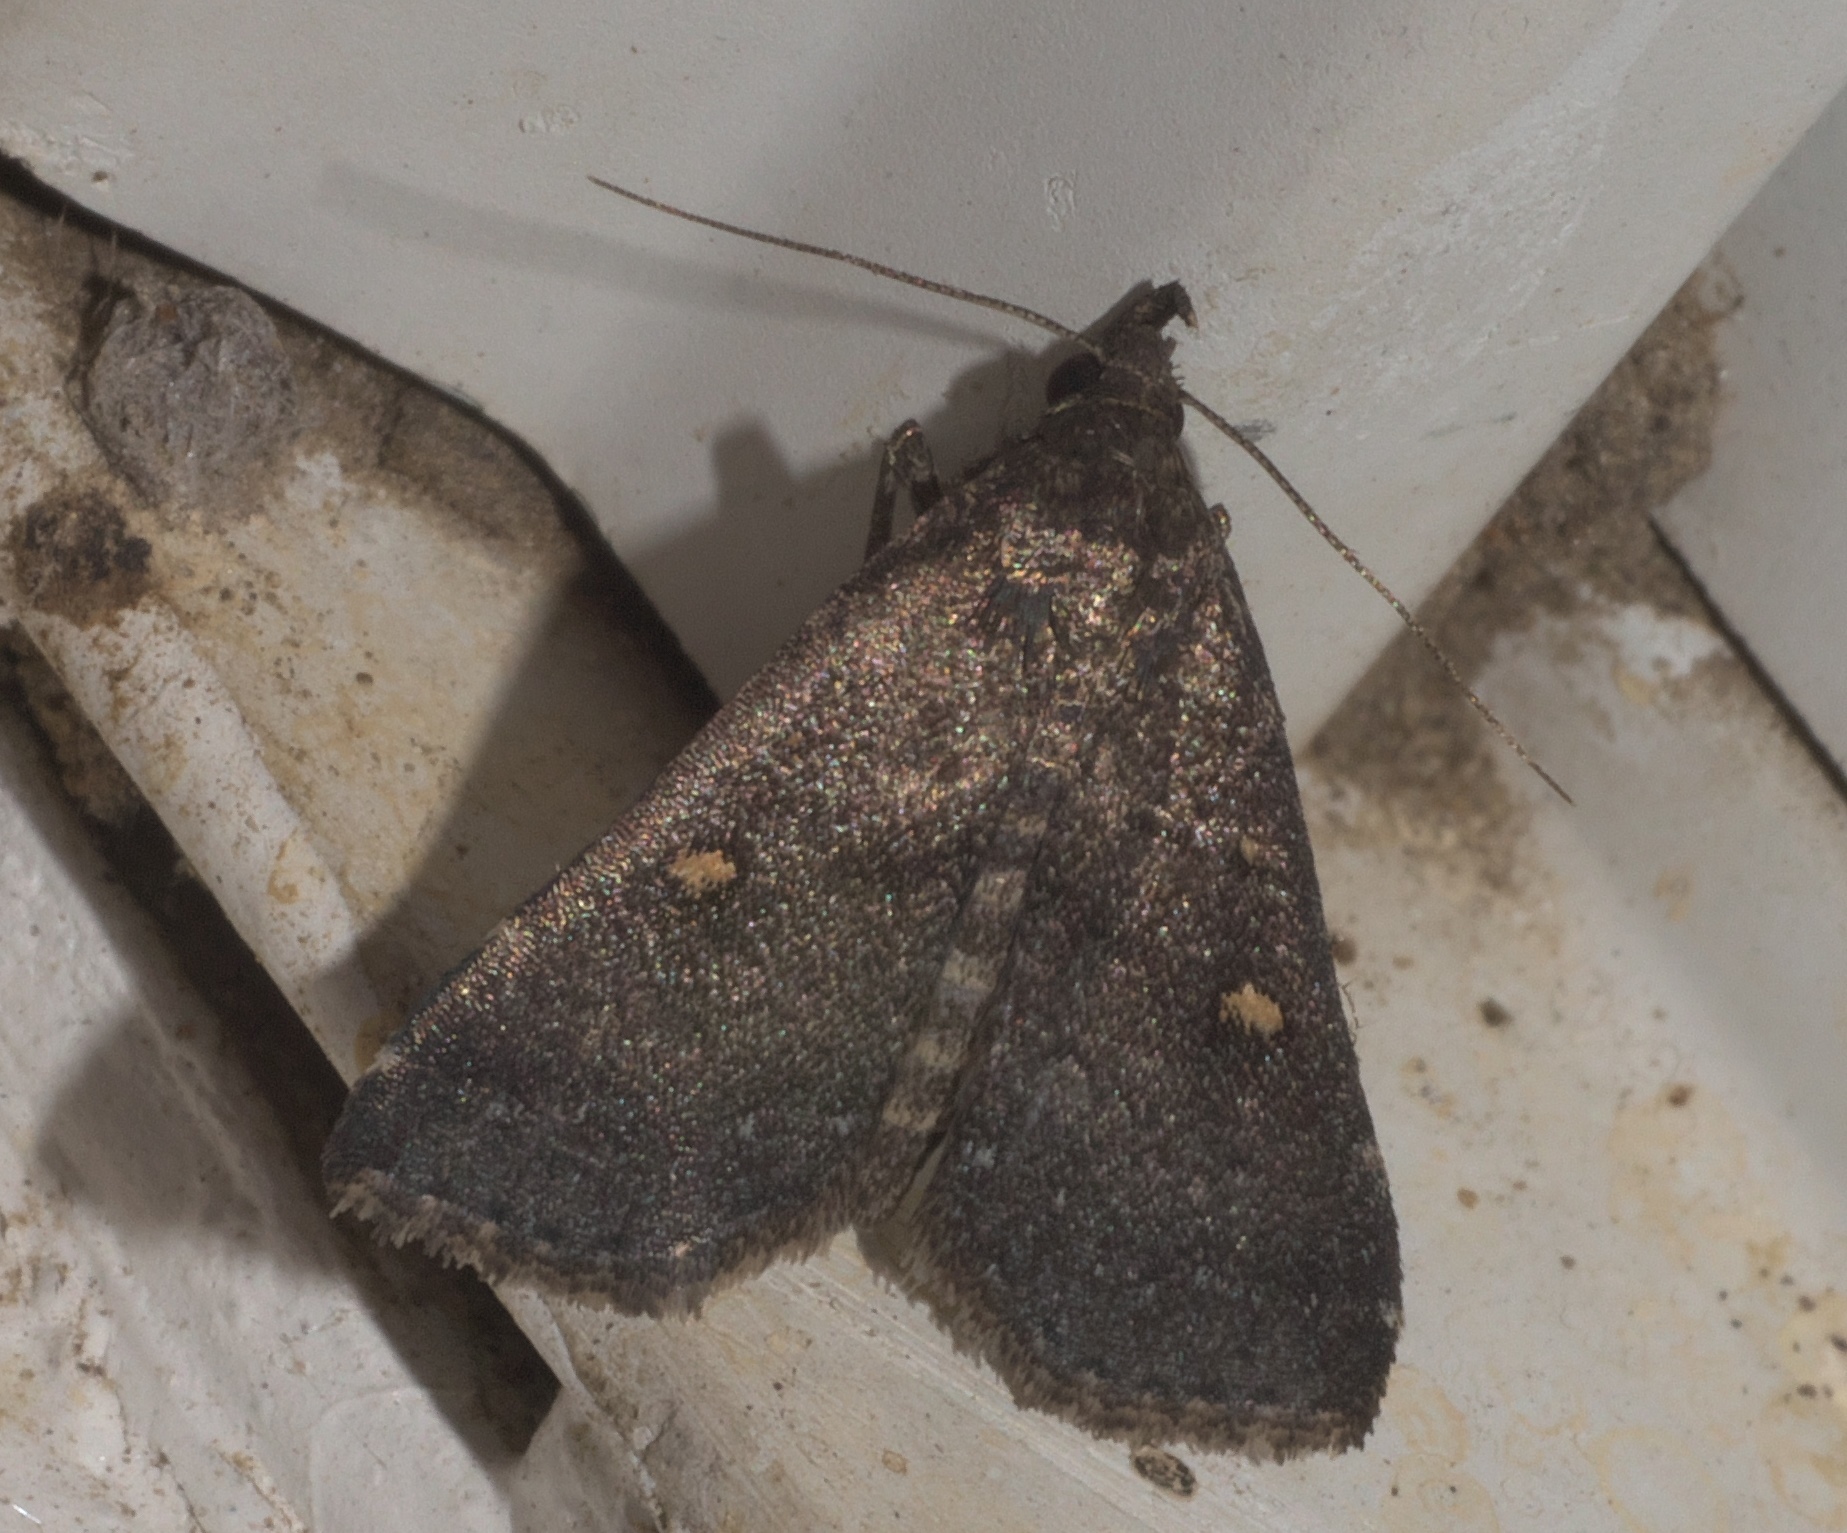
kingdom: Animalia
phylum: Arthropoda
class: Insecta
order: Lepidoptera
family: Erebidae
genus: Tetanolita
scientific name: Tetanolita mynesalis
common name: Smoky tetanolita moth
